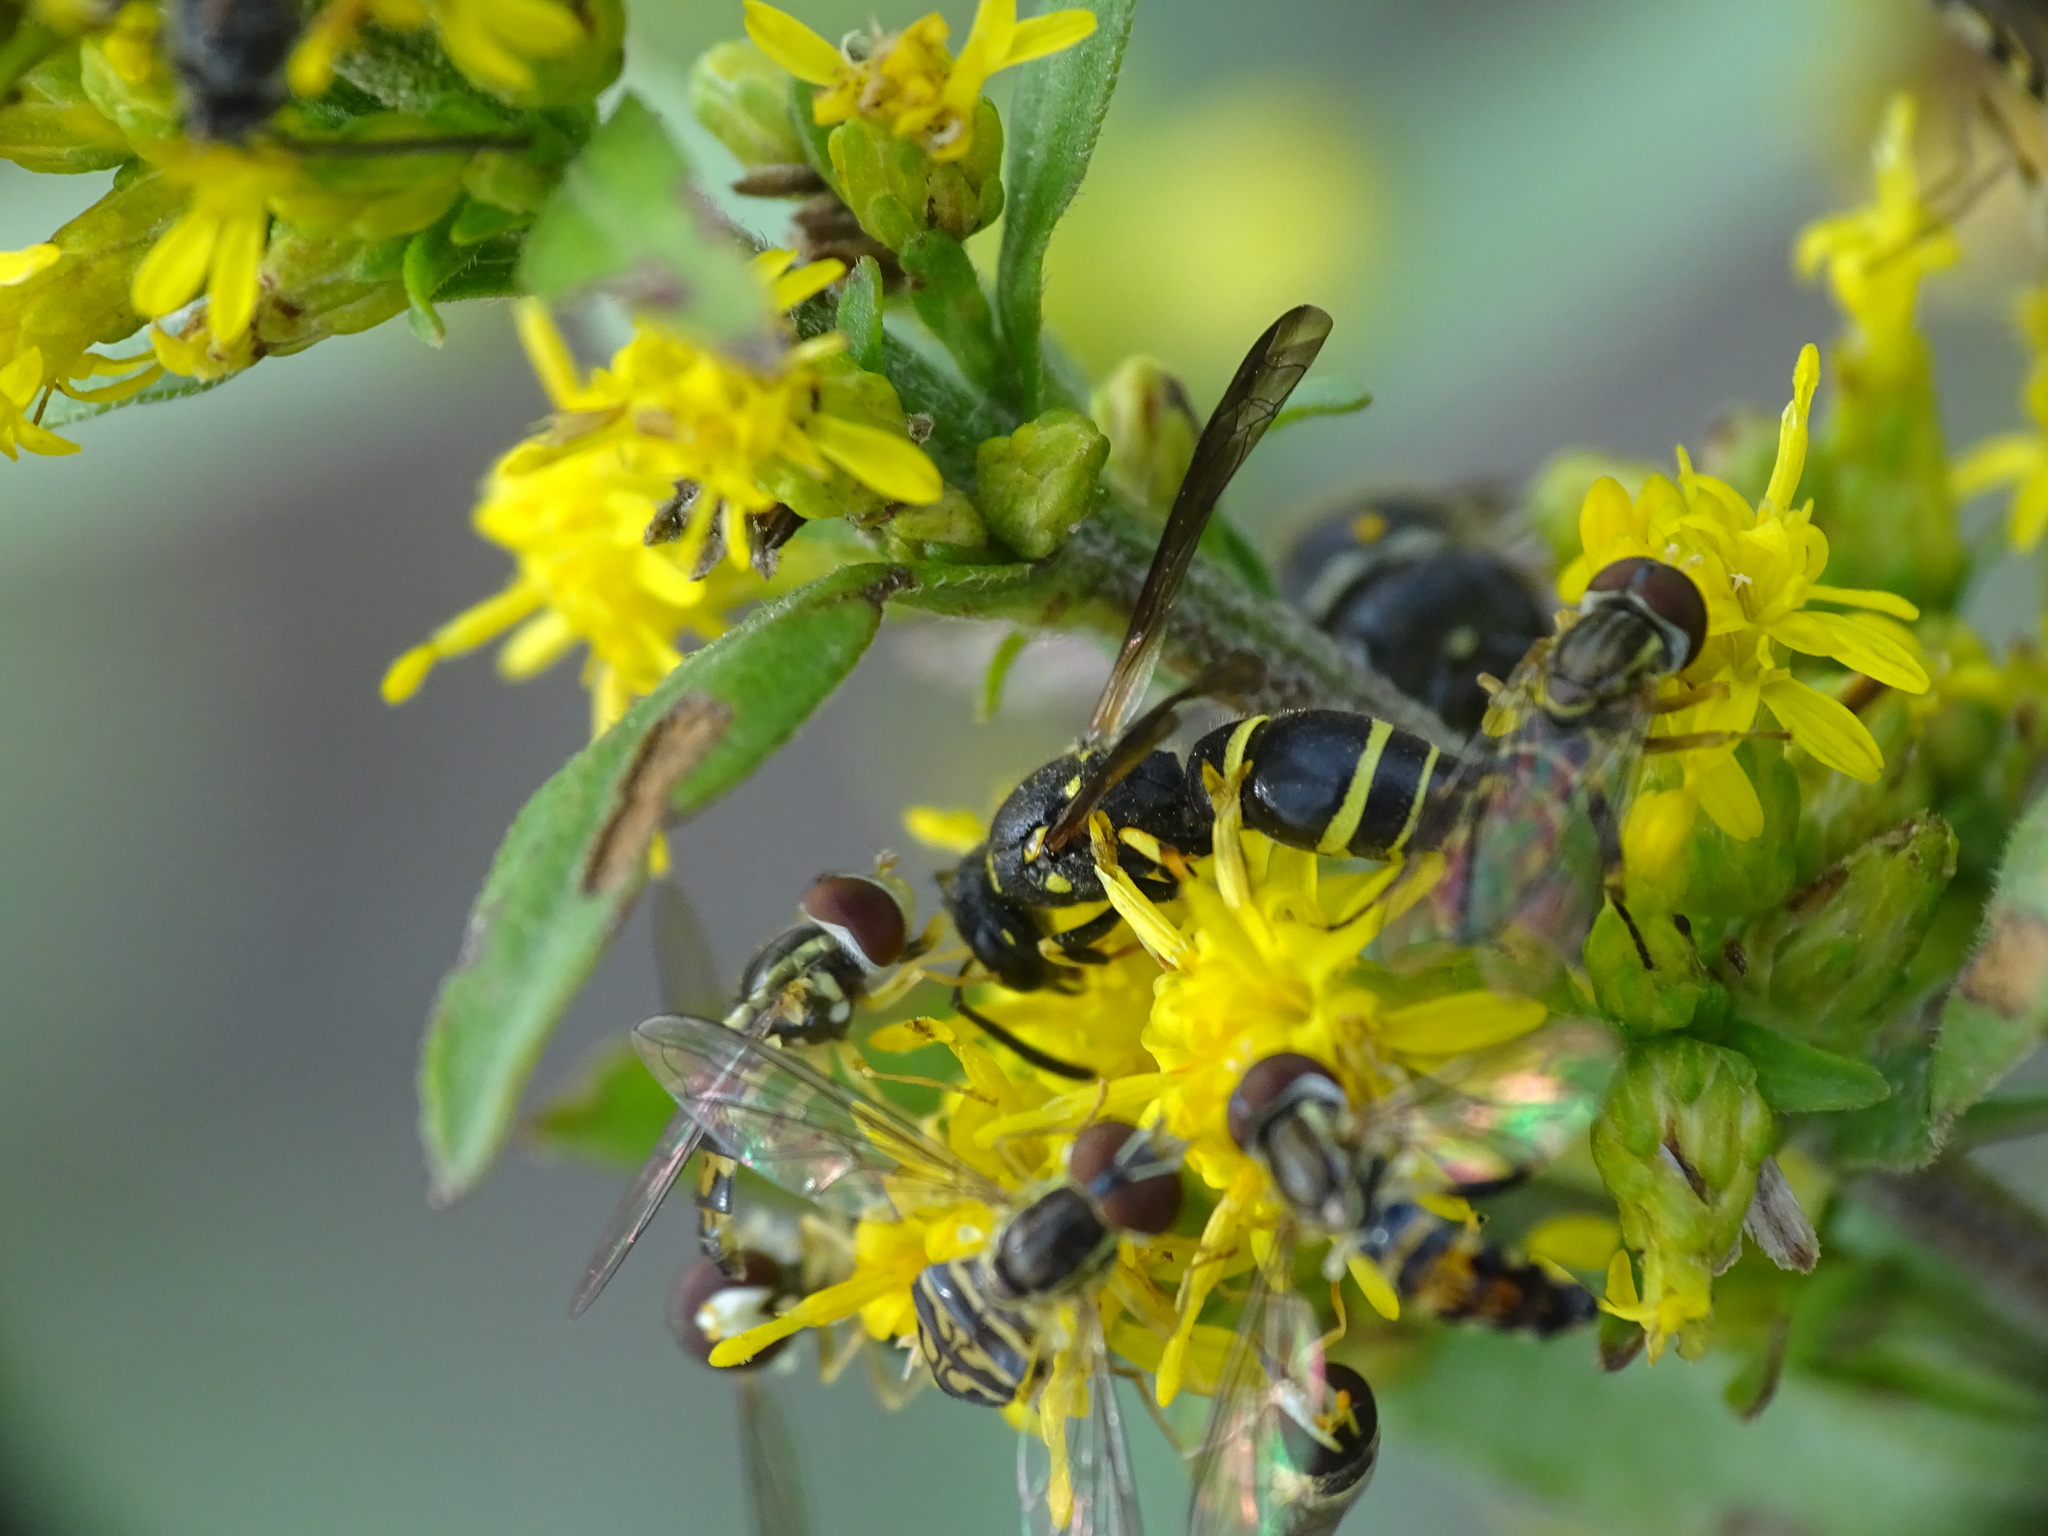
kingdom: Animalia
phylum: Arthropoda
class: Insecta
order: Hymenoptera
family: Vespidae
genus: Ancistrocerus
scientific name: Ancistrocerus adiabatus
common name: Bramble mason wasp
